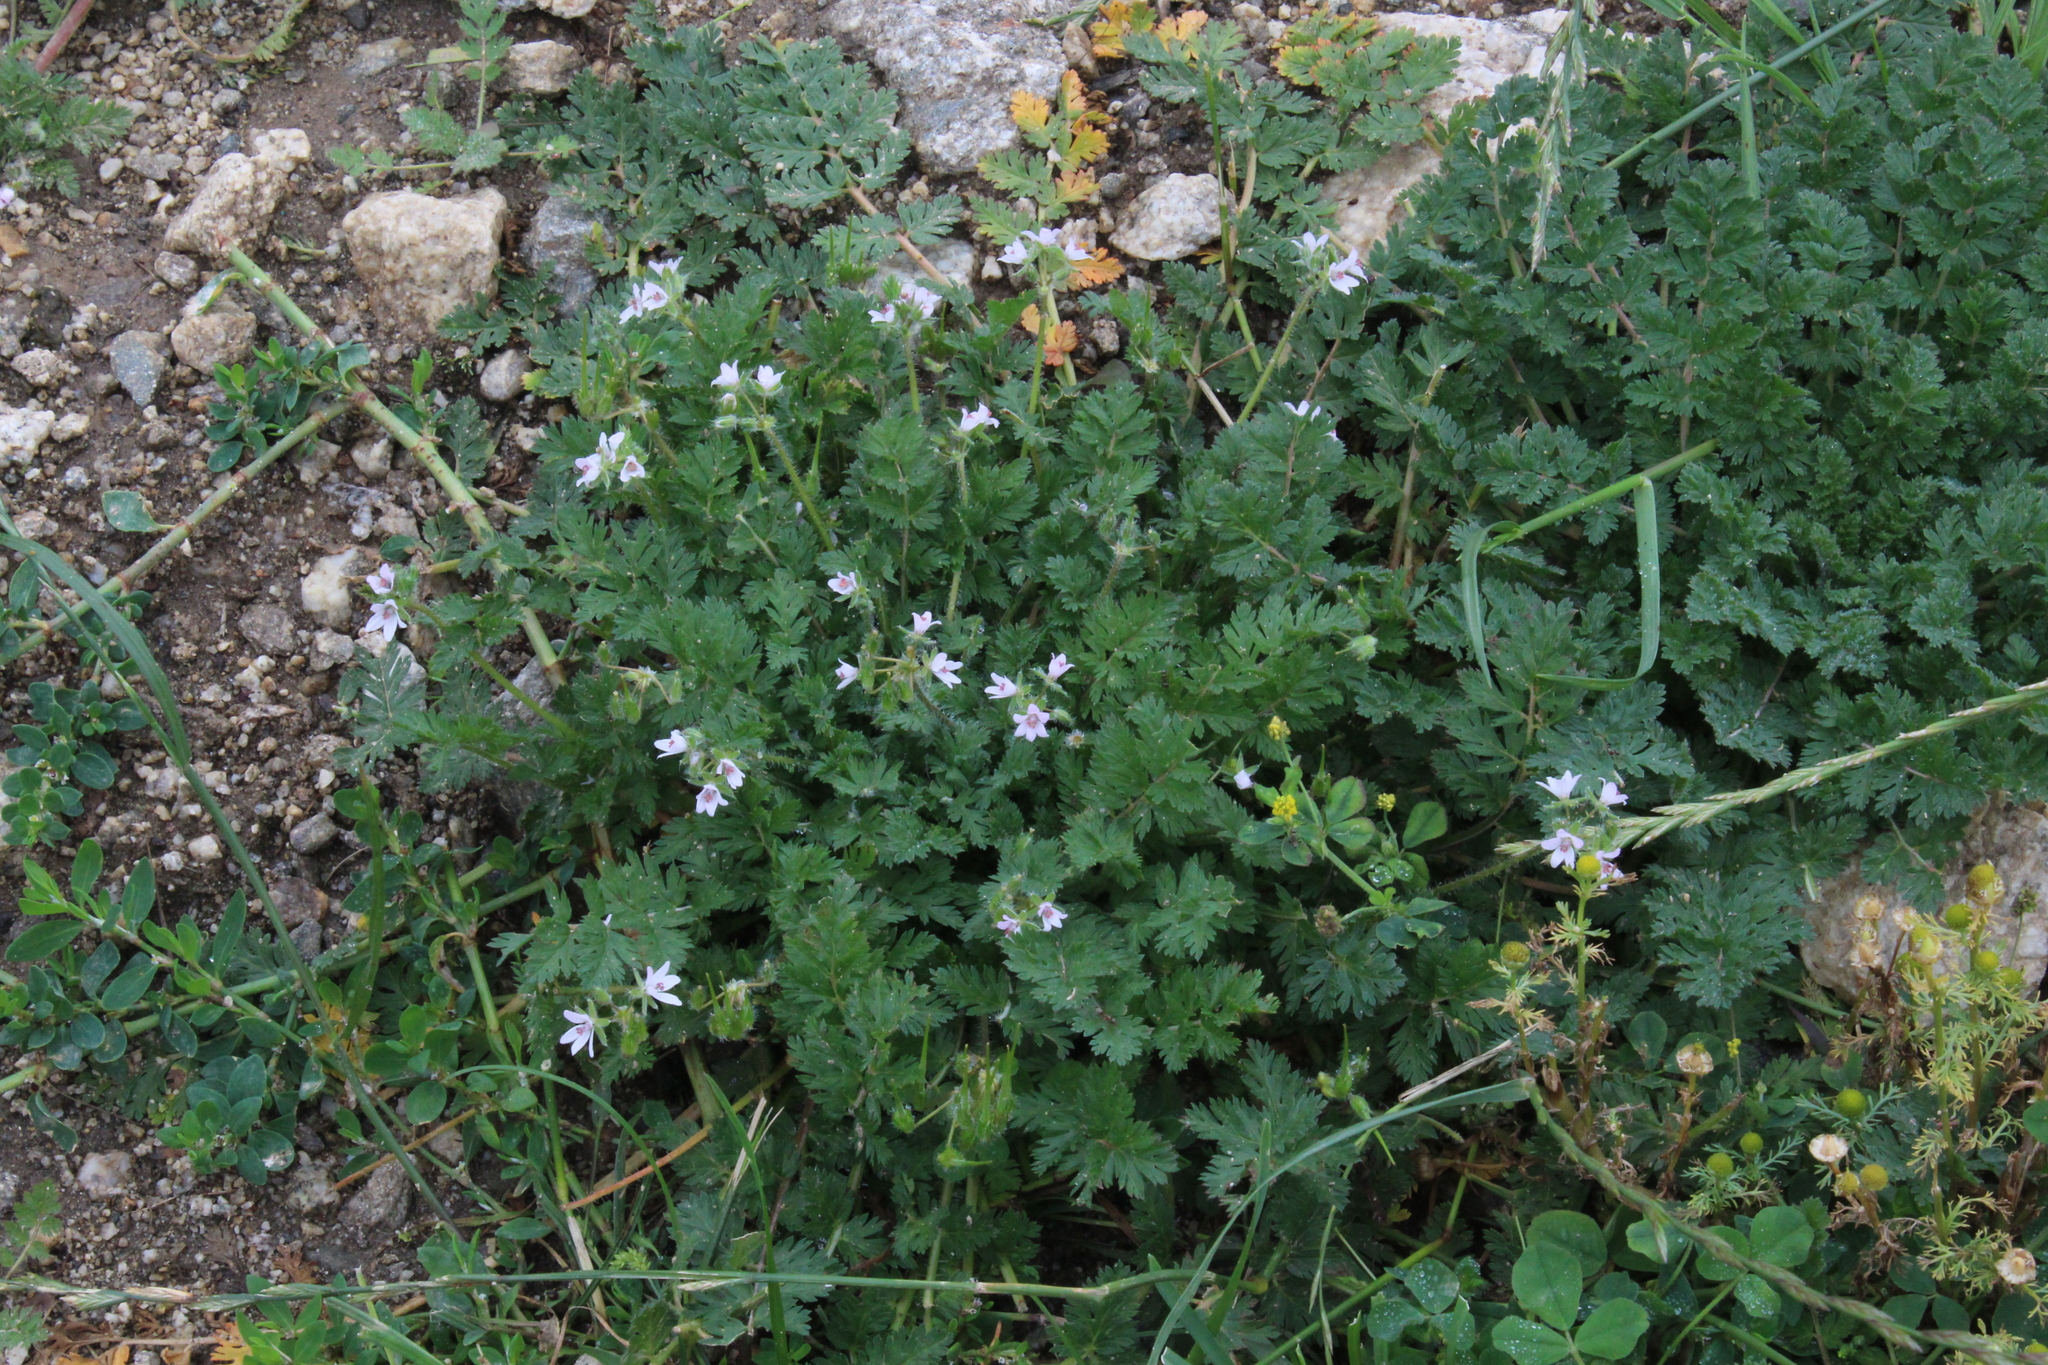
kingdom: Plantae
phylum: Tracheophyta
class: Magnoliopsida
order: Geraniales
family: Geraniaceae
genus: Erodium
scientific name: Erodium cicutarium
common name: Common stork's-bill
